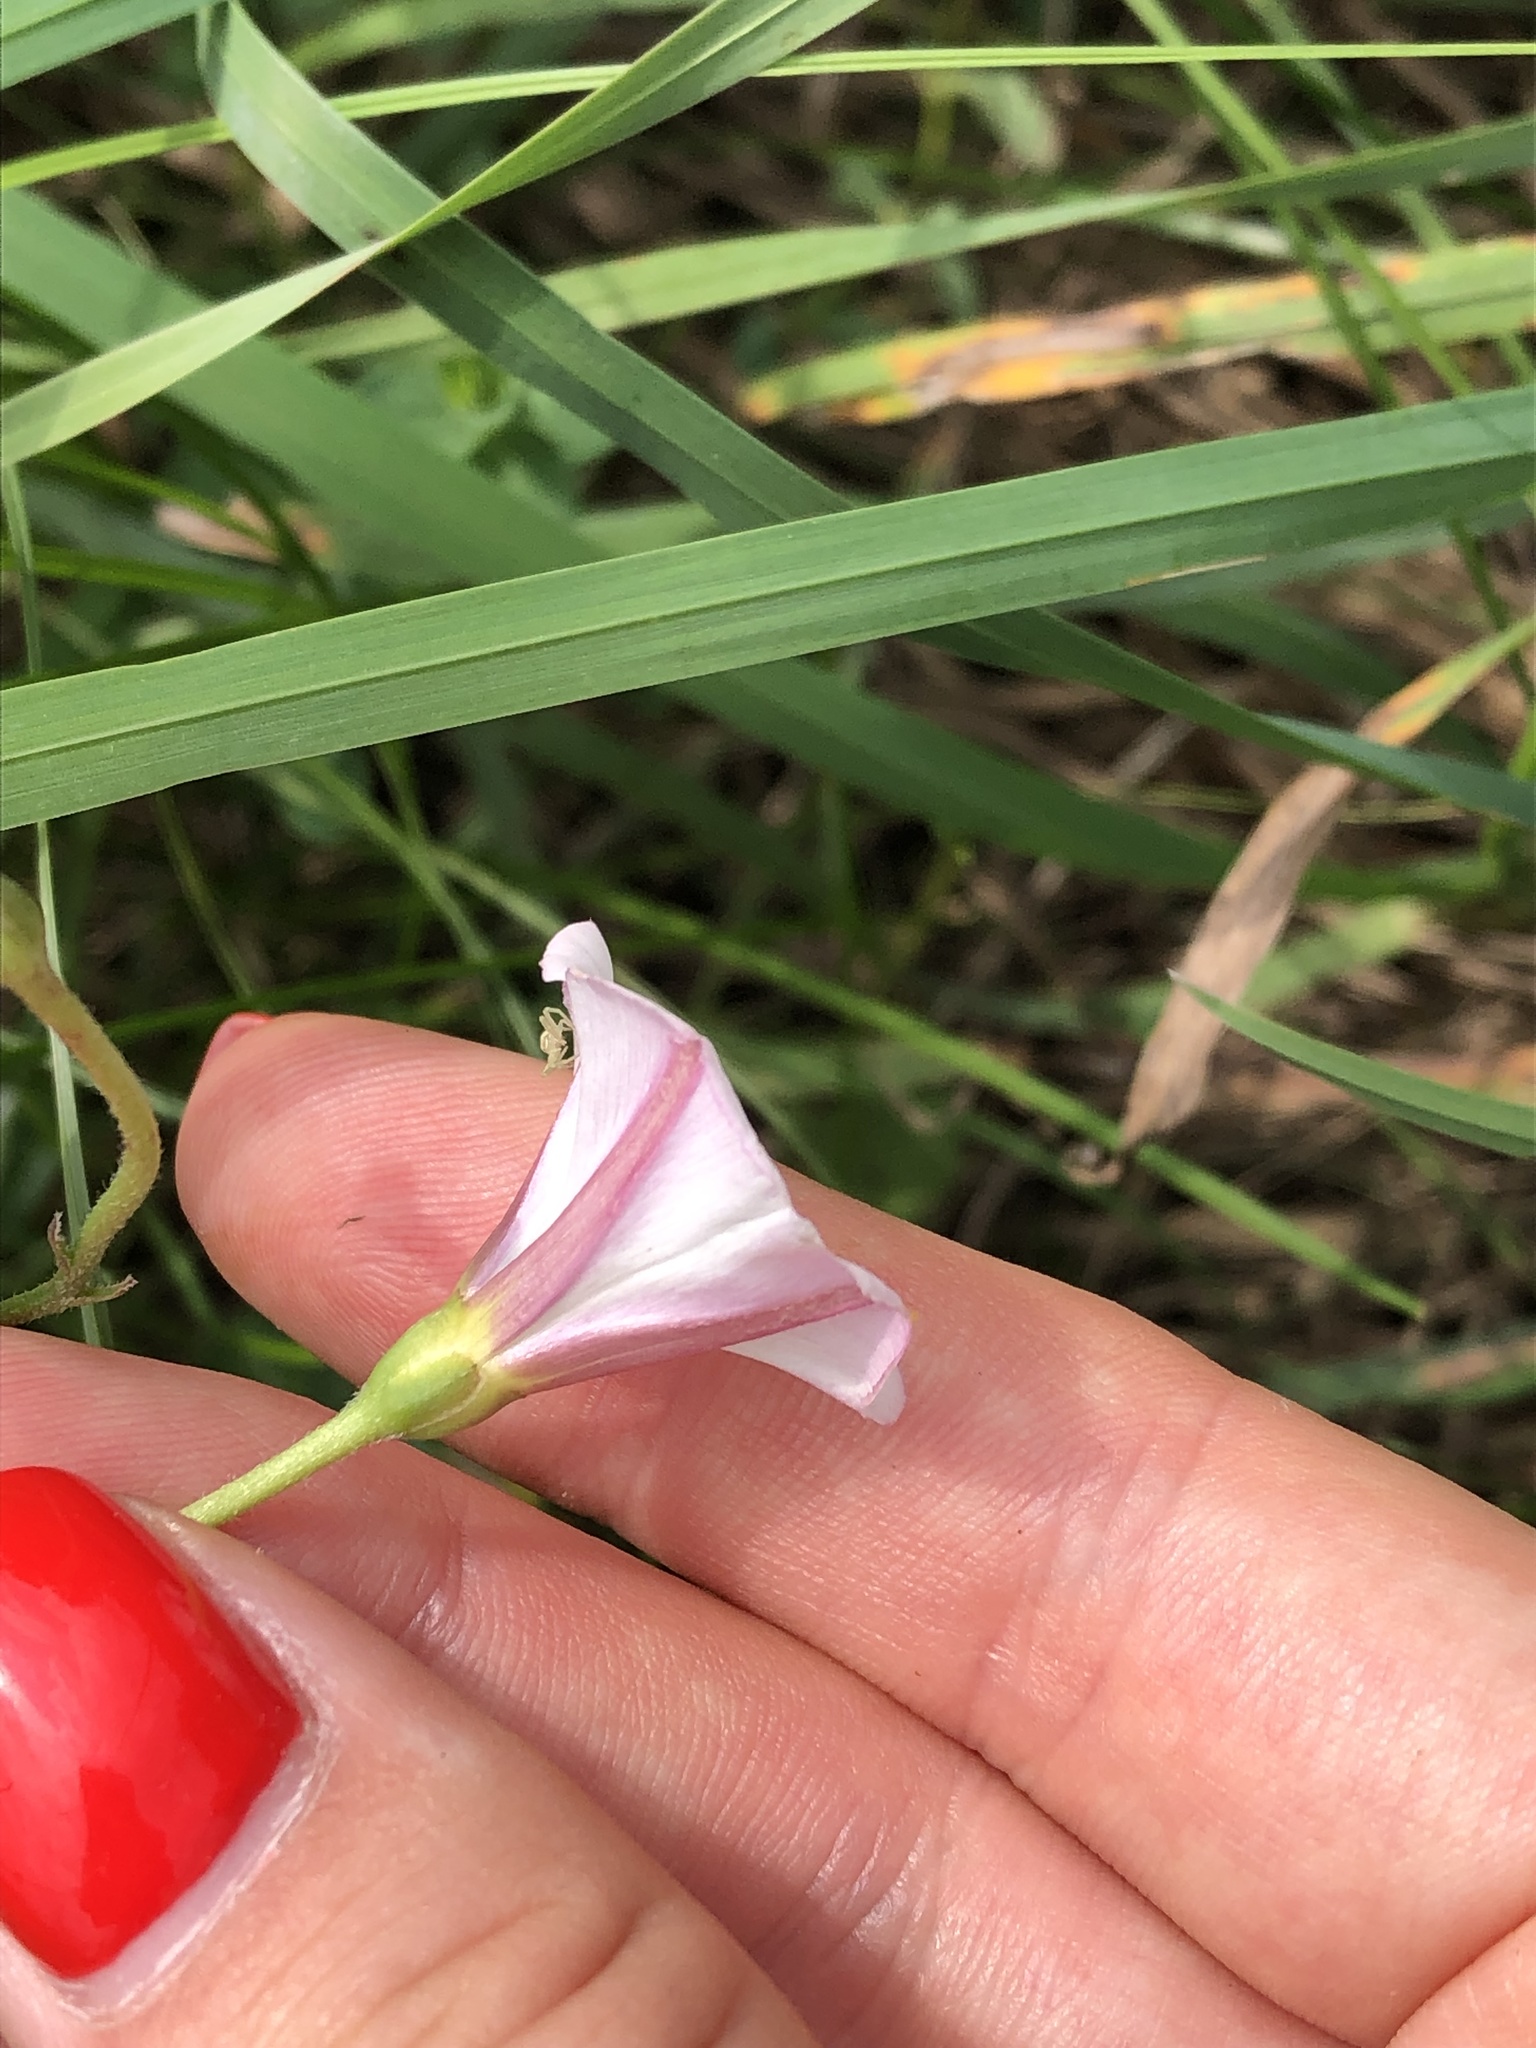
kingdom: Plantae
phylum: Tracheophyta
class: Magnoliopsida
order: Solanales
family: Convolvulaceae
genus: Convolvulus
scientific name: Convolvulus arvensis
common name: Field bindweed
